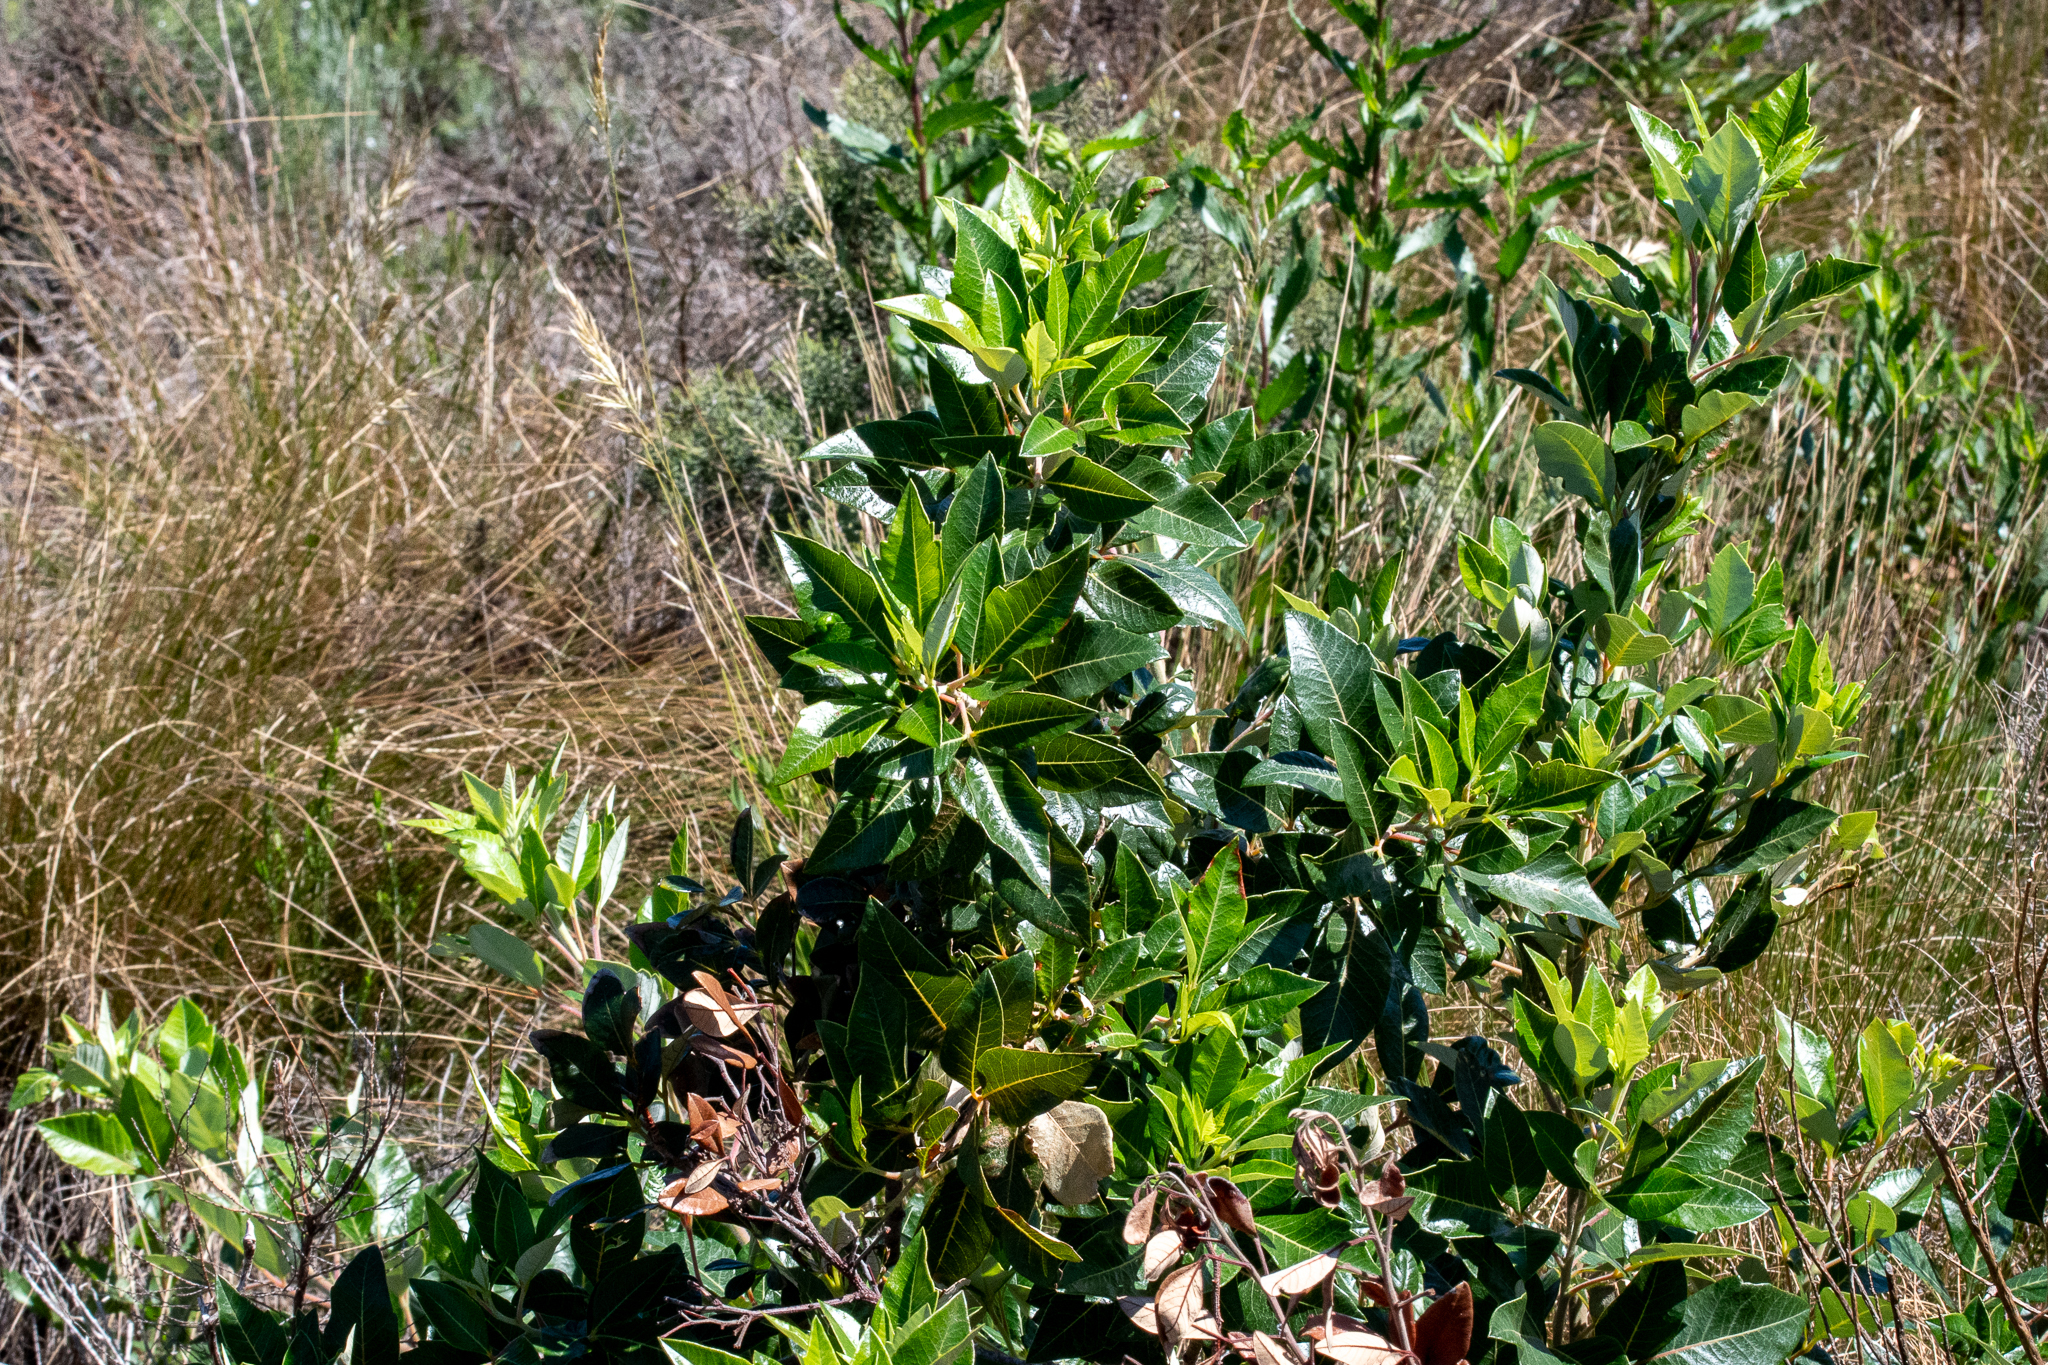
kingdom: Plantae
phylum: Tracheophyta
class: Magnoliopsida
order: Sapindales
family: Anacardiaceae
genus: Searsia
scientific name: Searsia tomentosa
